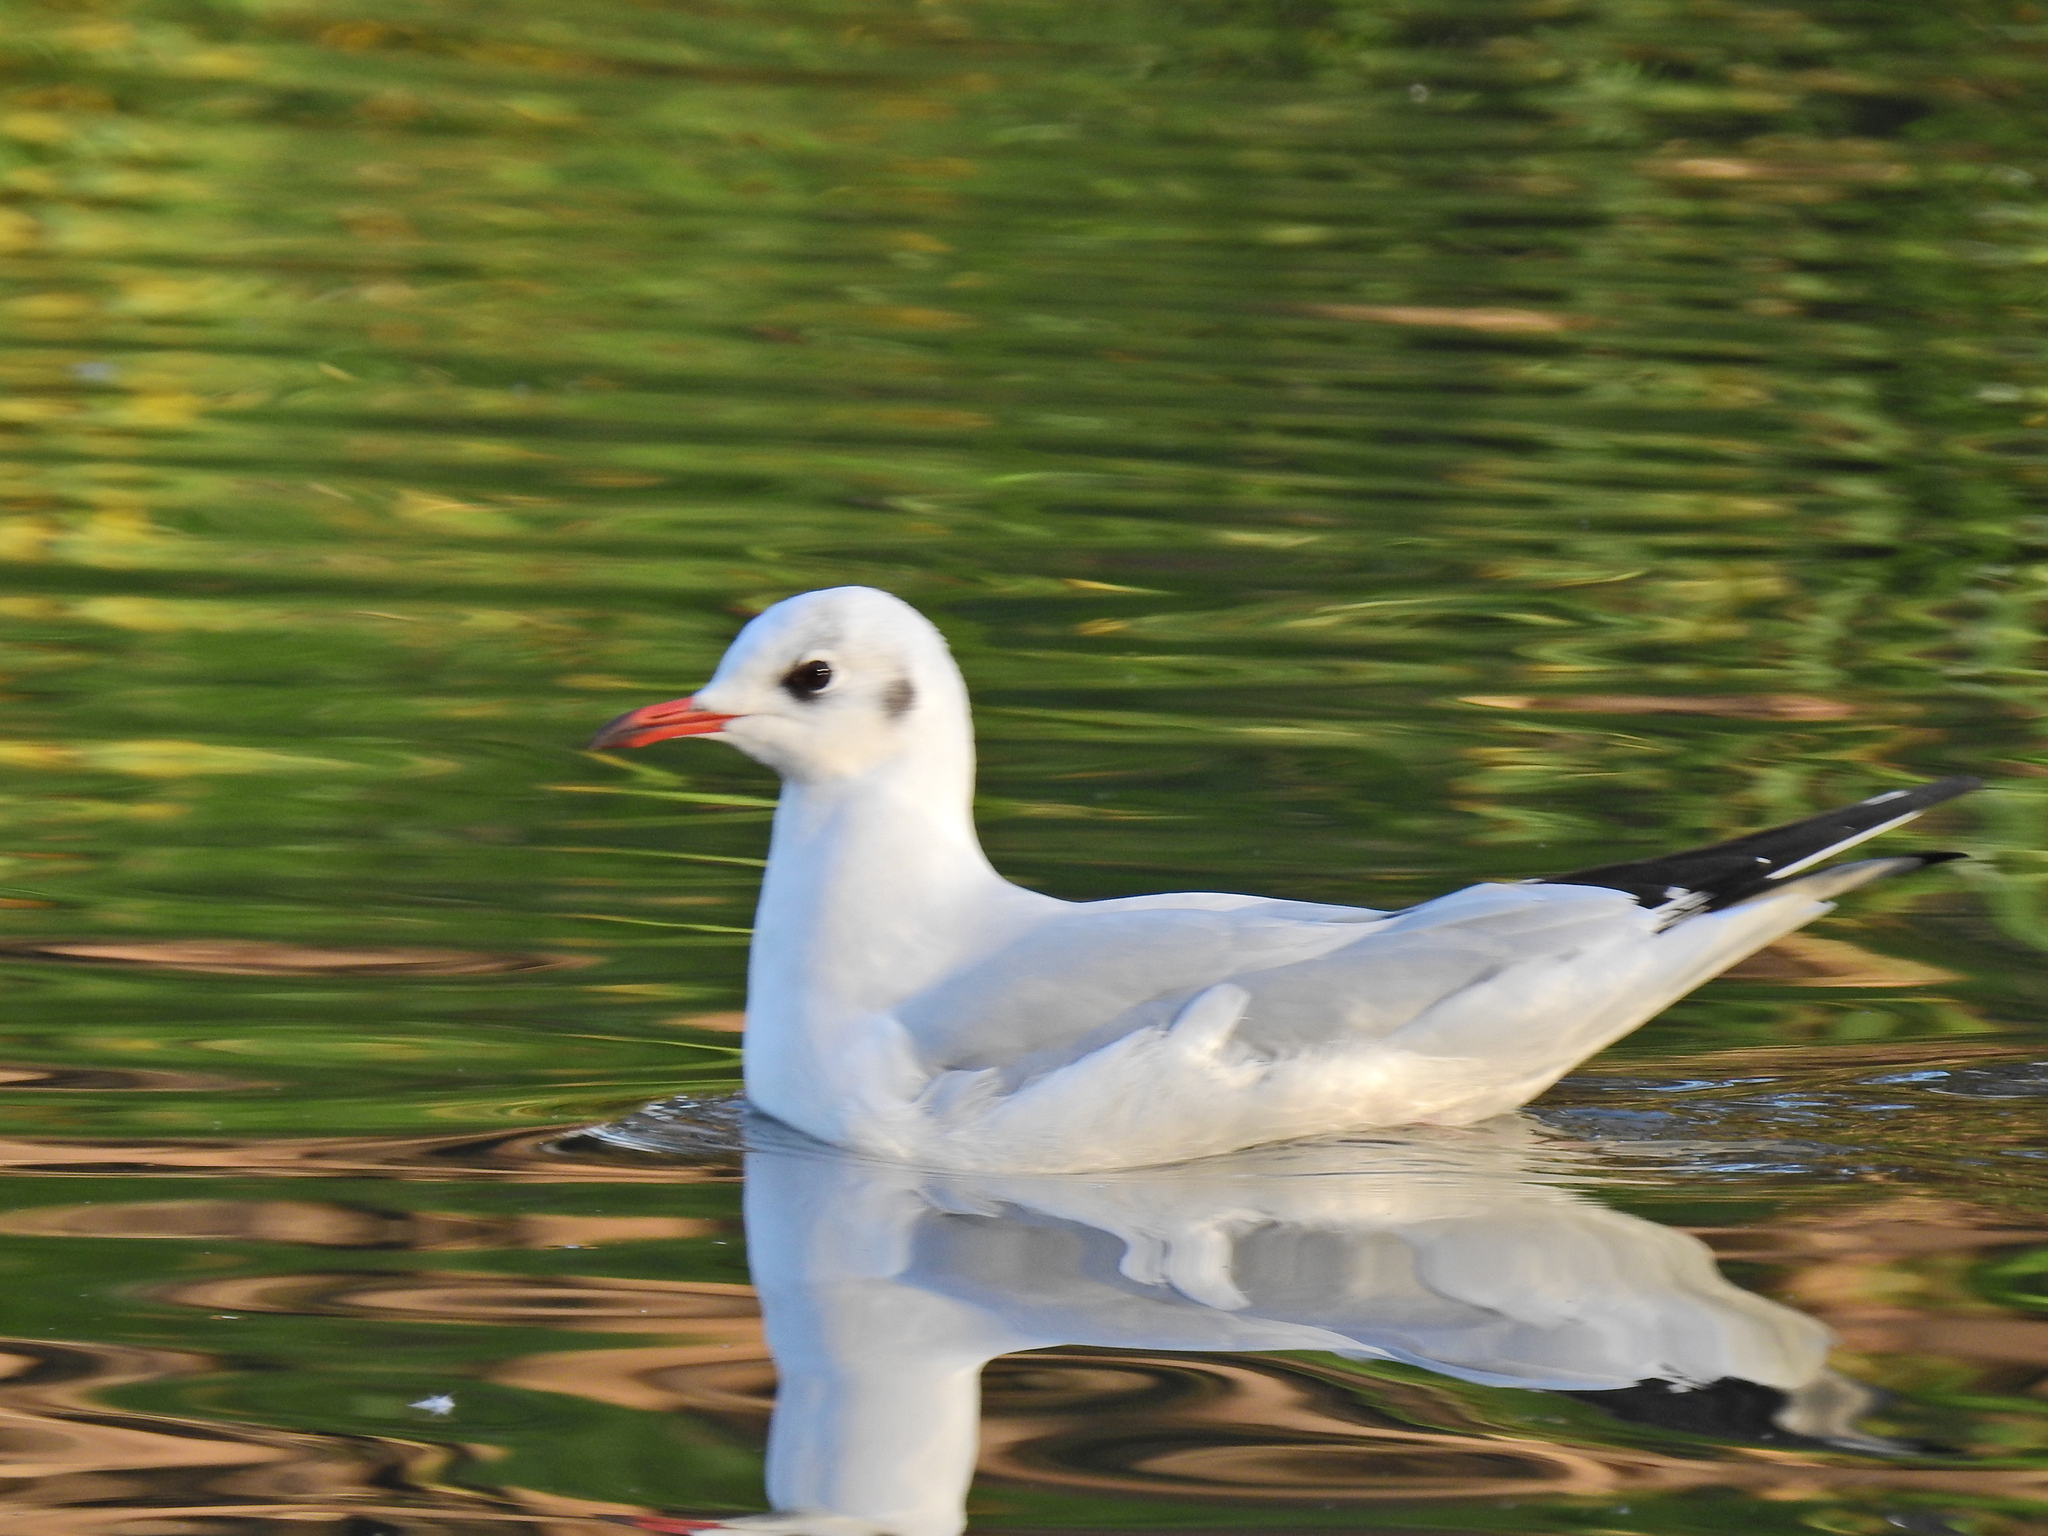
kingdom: Animalia
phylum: Chordata
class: Aves
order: Charadriiformes
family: Laridae
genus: Chroicocephalus
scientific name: Chroicocephalus ridibundus
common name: Black-headed gull
